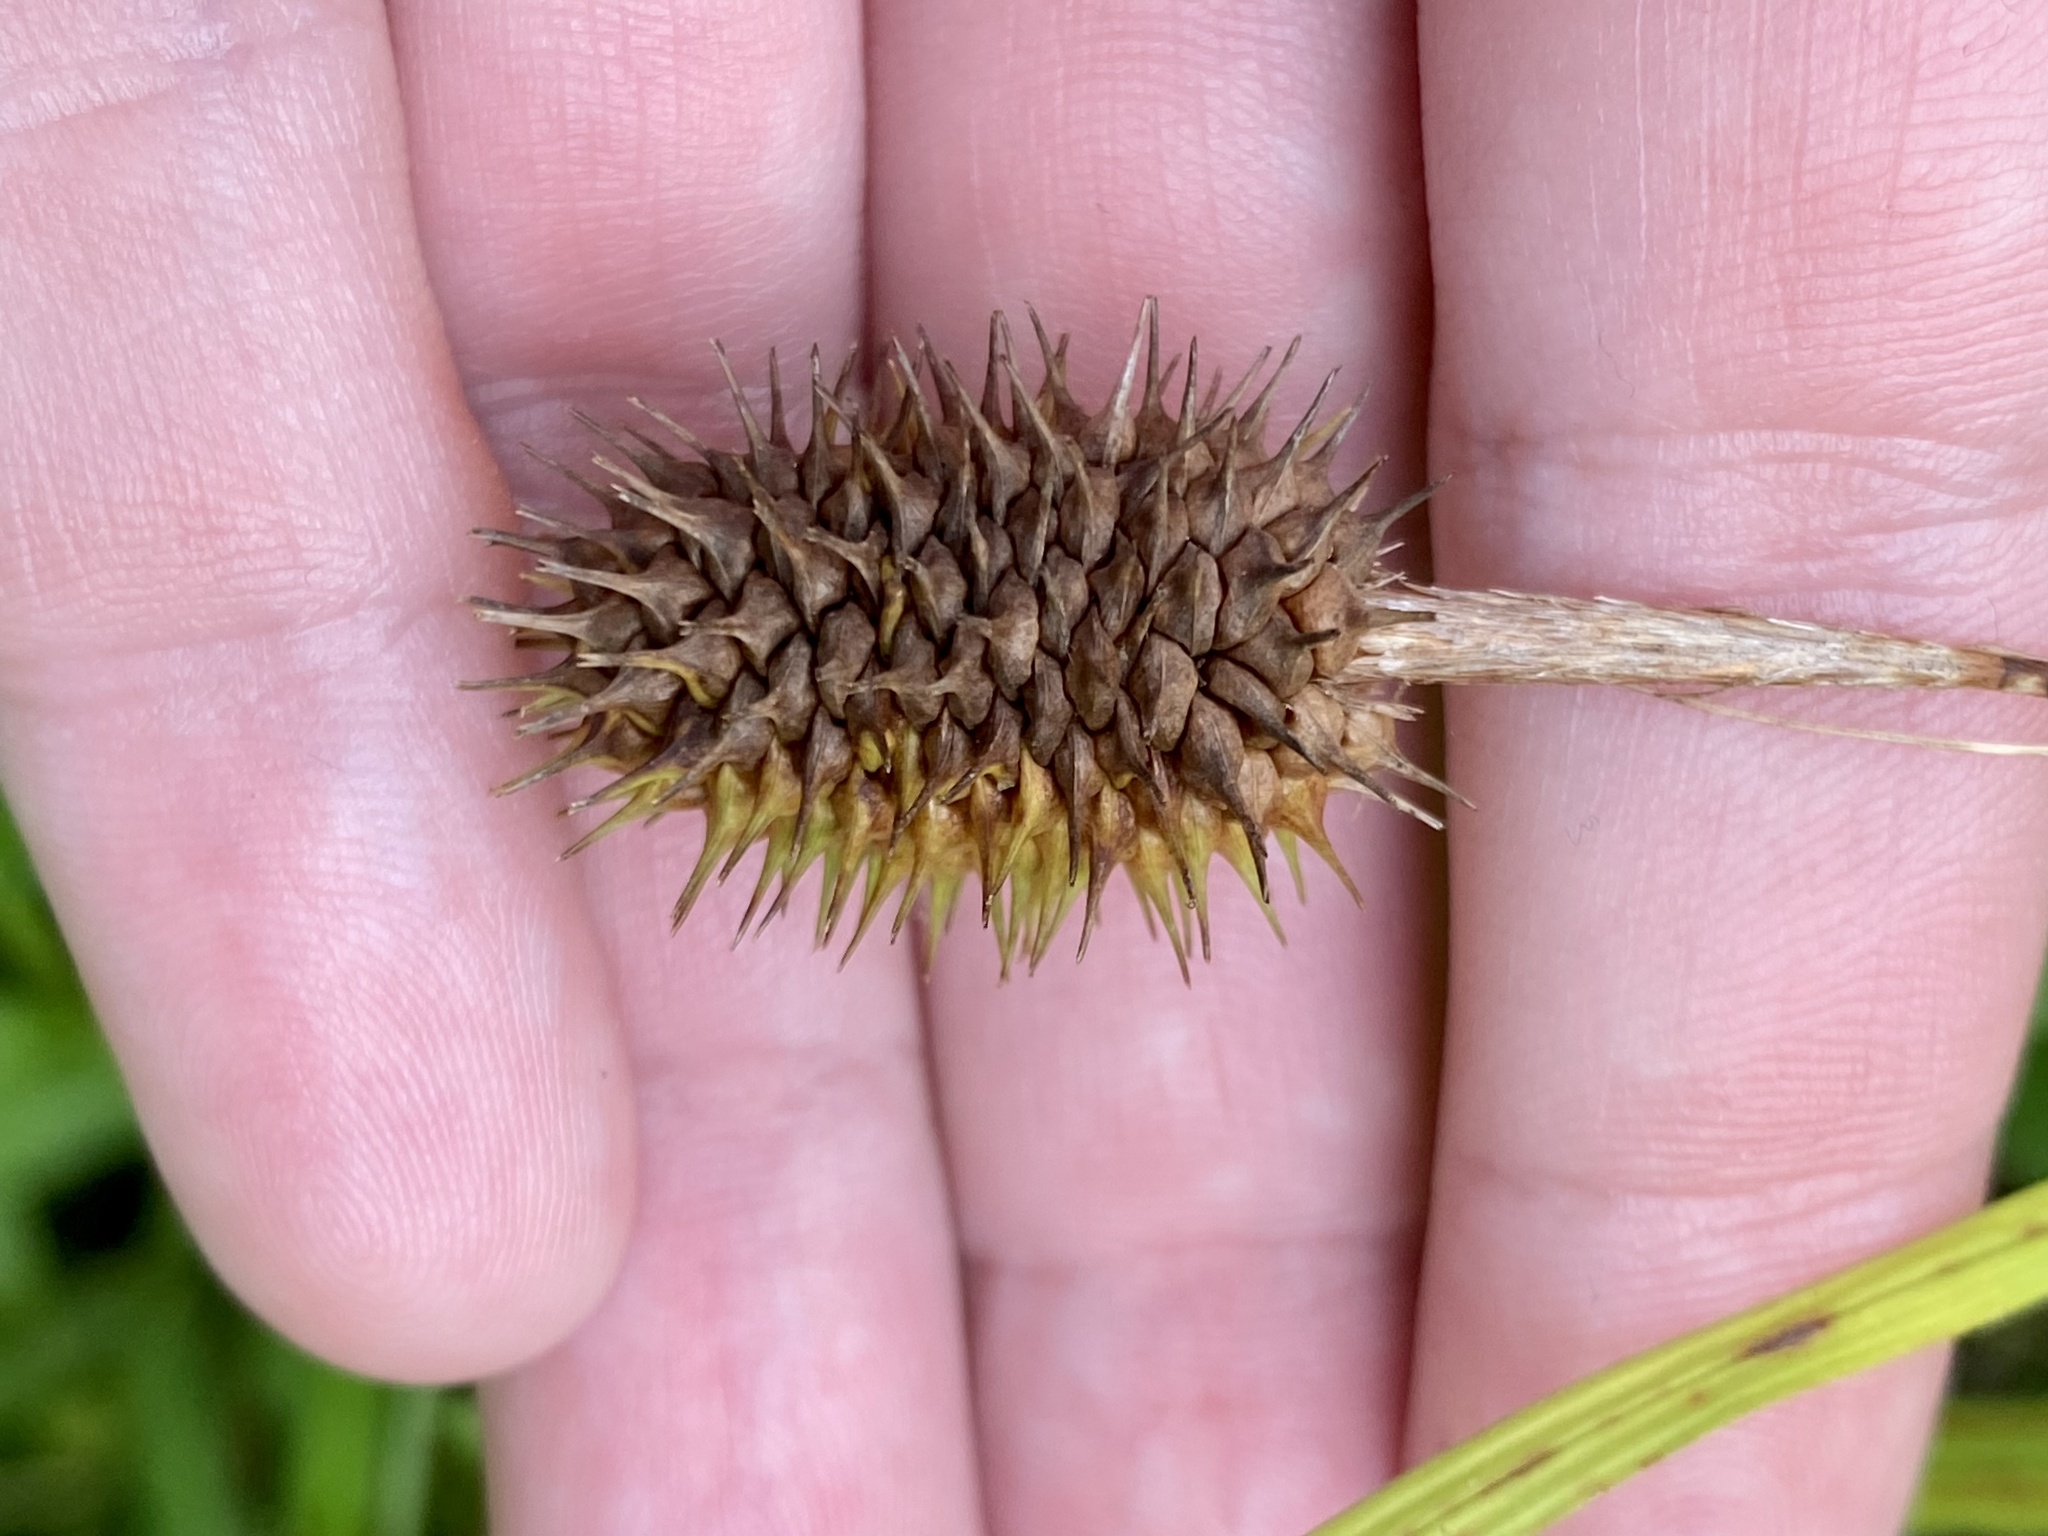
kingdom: Plantae
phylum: Tracheophyta
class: Liliopsida
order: Poales
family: Cyperaceae
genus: Carex
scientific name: Carex squarrosa
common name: Narrow-leaved cattail sedge
